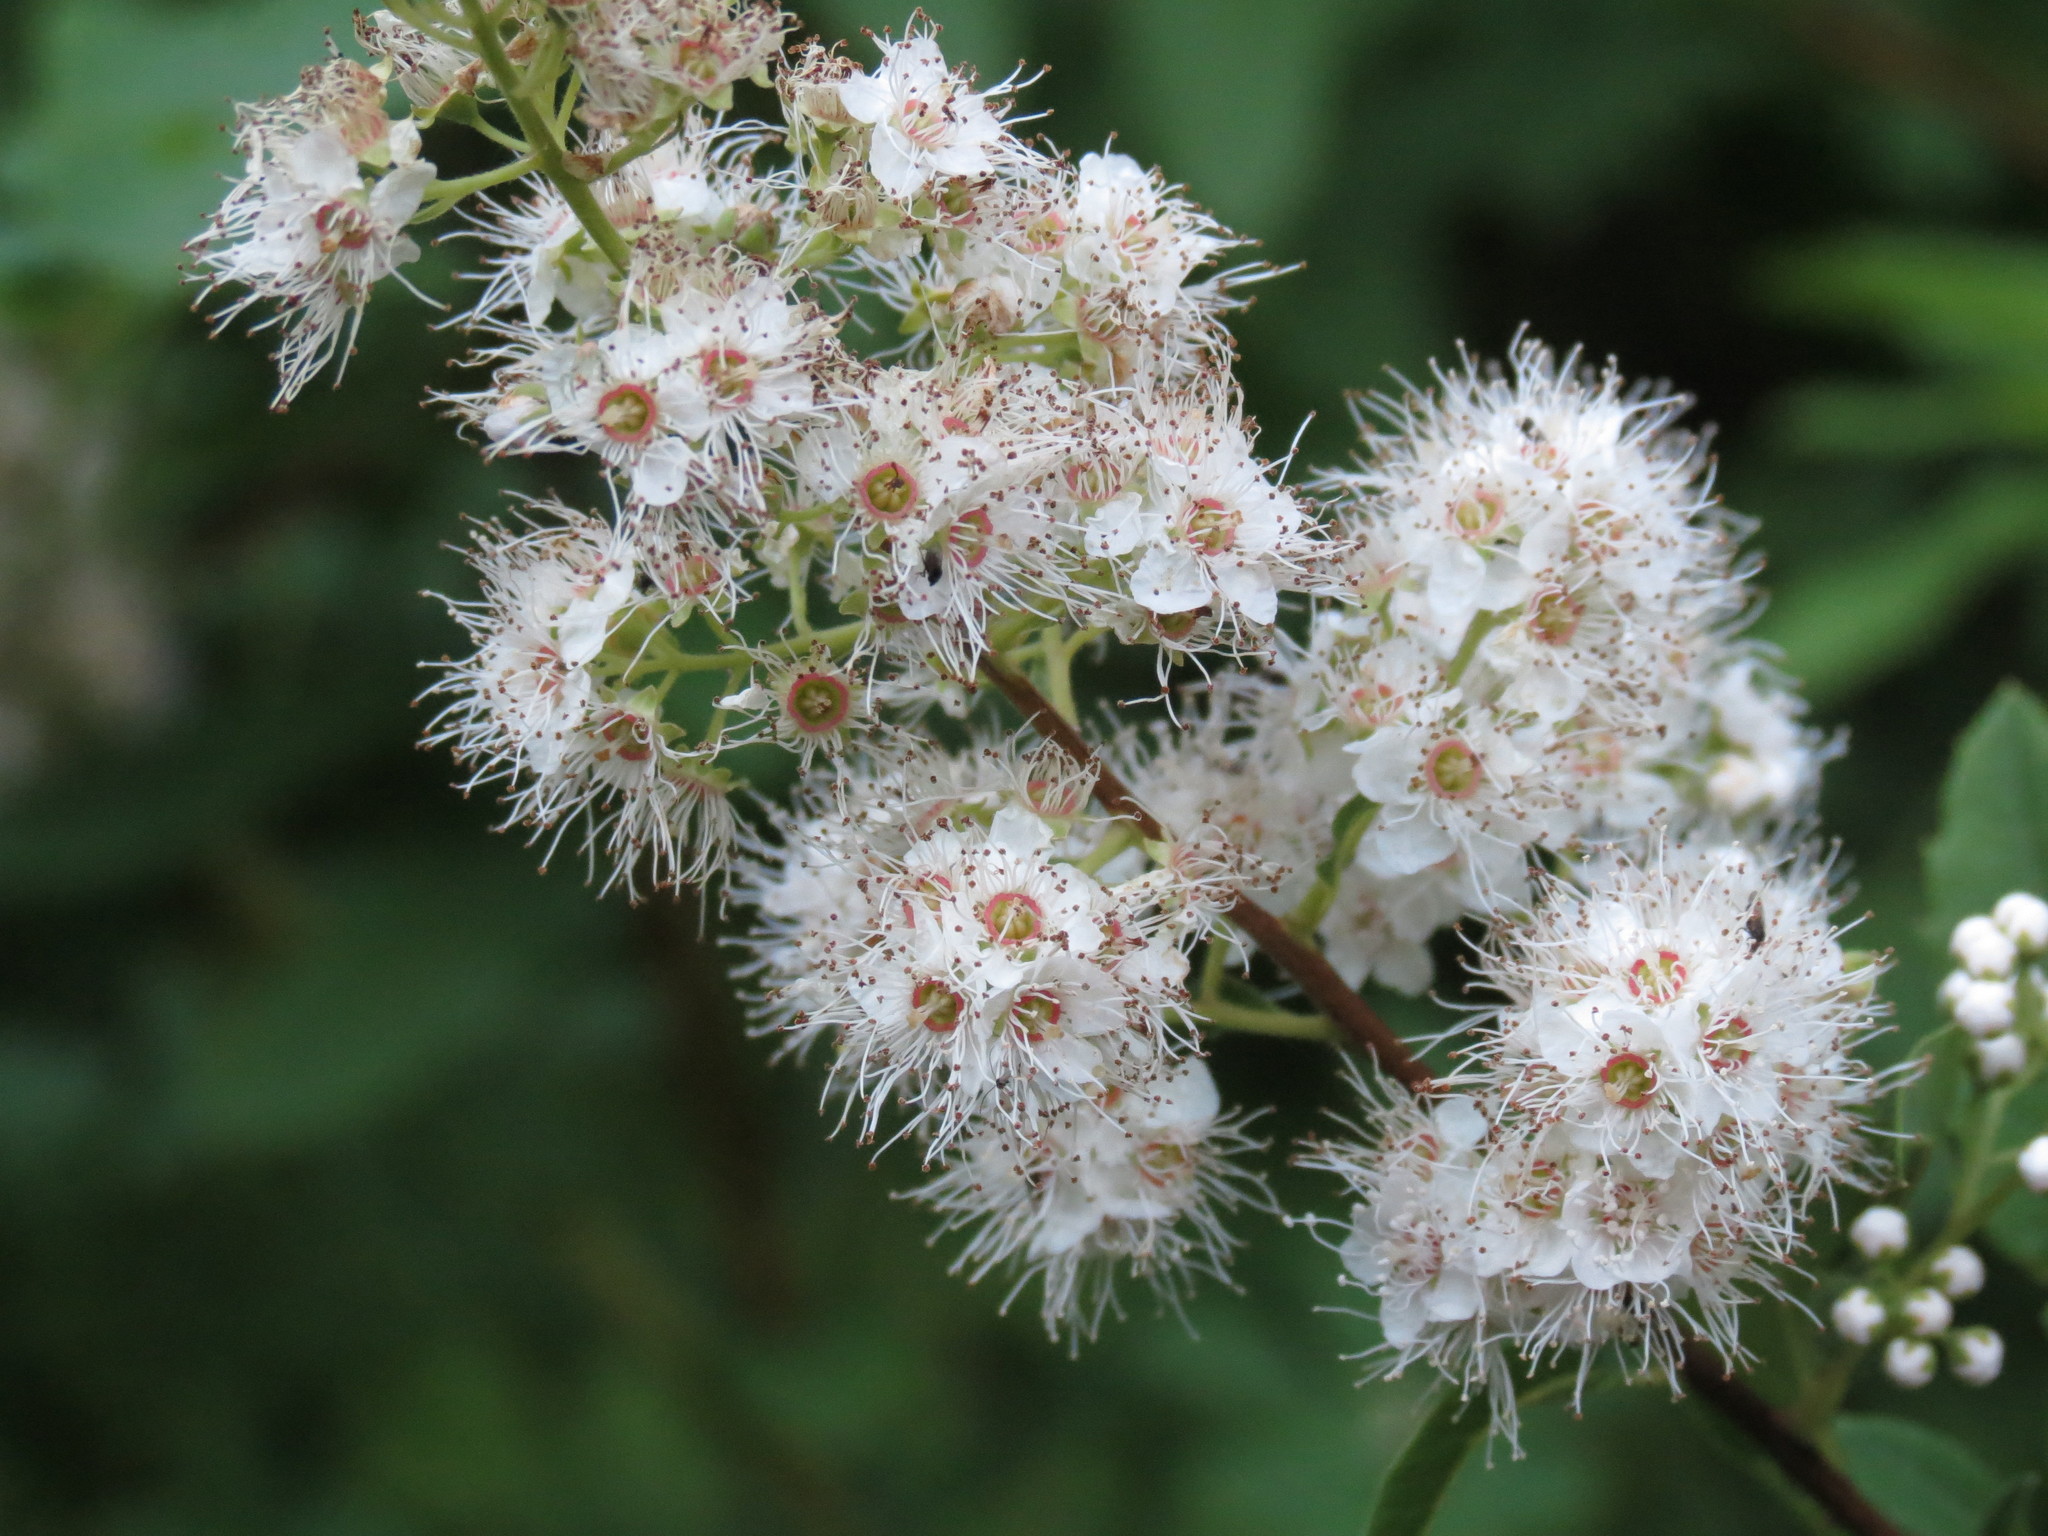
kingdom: Plantae
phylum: Tracheophyta
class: Magnoliopsida
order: Rosales
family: Rosaceae
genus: Spiraea
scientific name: Spiraea alba
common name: Pale bridewort
